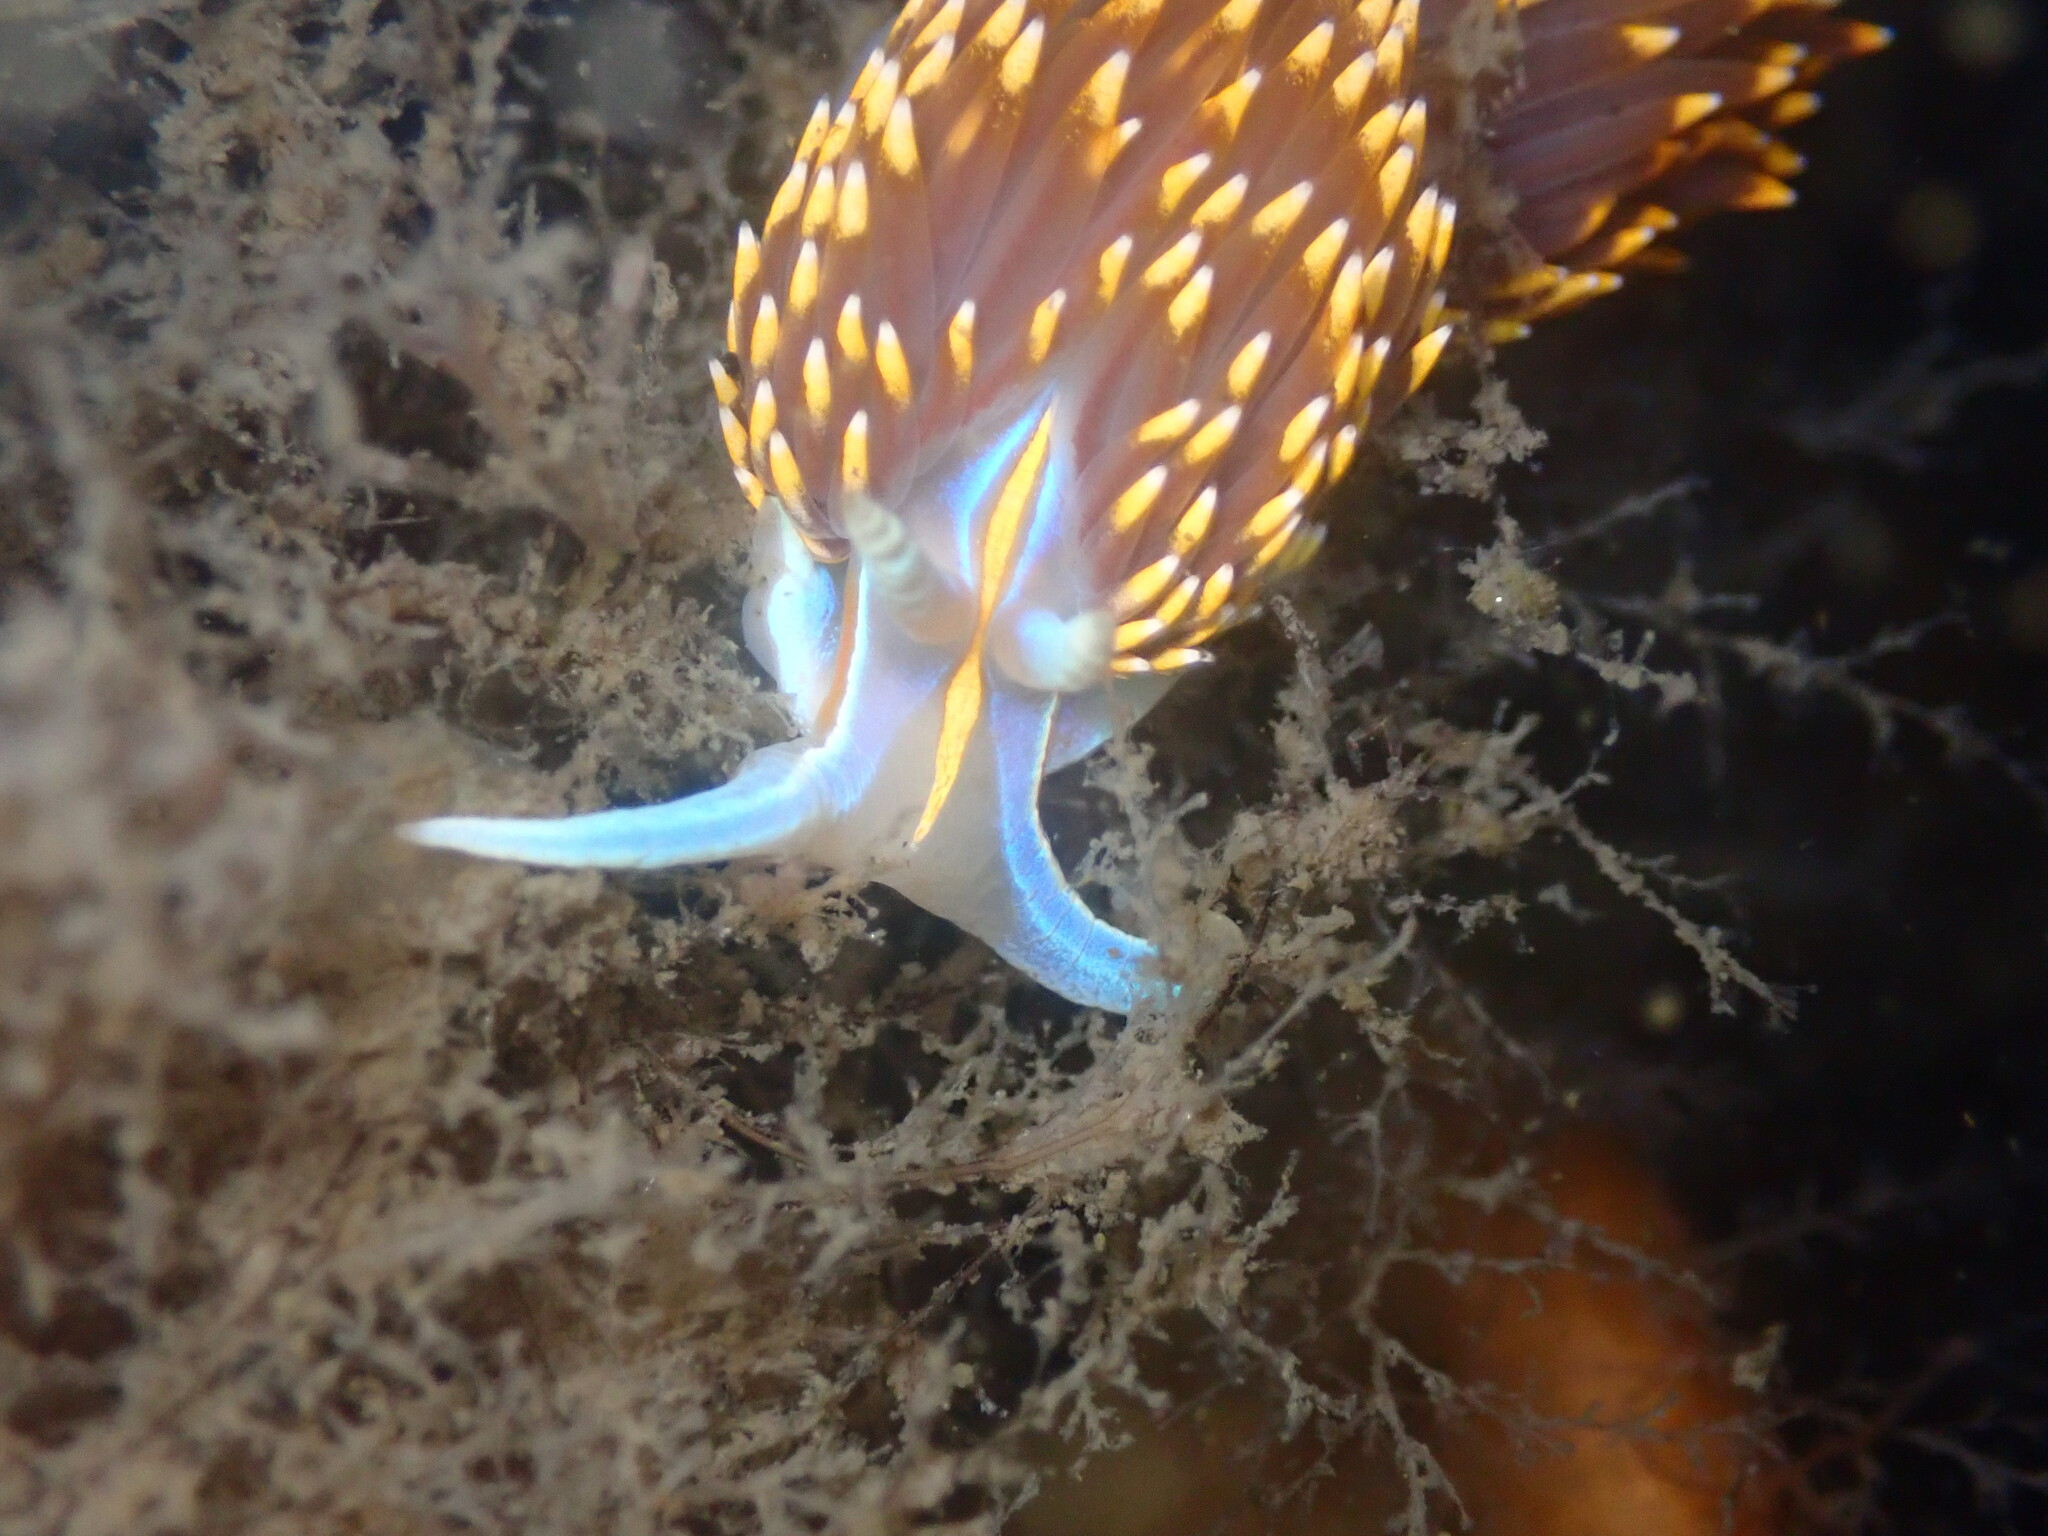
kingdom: Animalia
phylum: Mollusca
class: Gastropoda
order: Nudibranchia
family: Myrrhinidae
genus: Hermissenda
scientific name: Hermissenda opalescens
